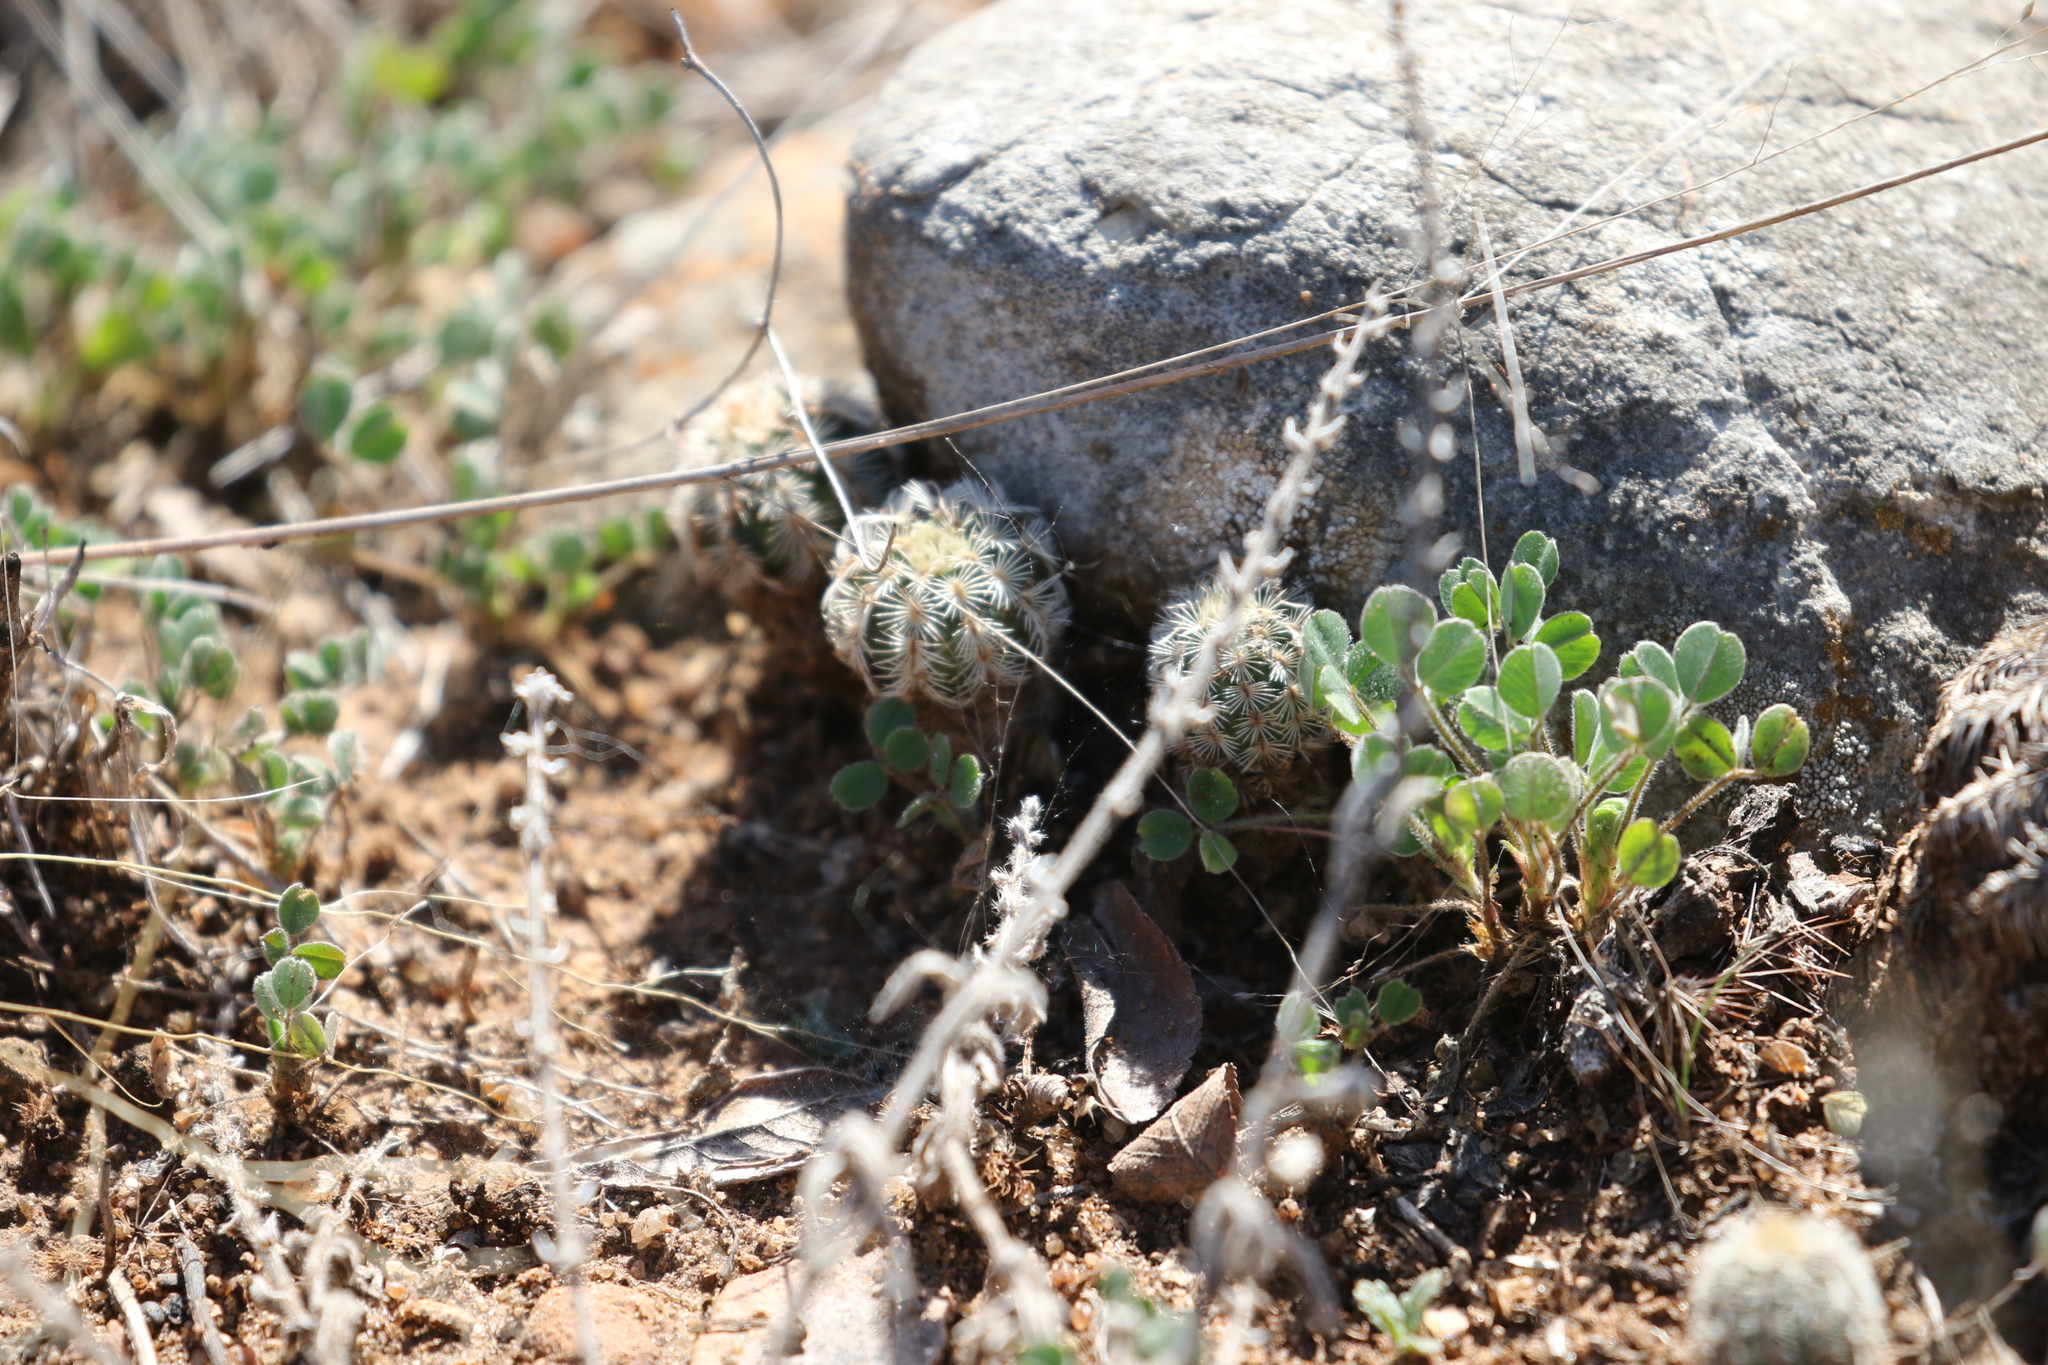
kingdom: Plantae
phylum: Tracheophyta
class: Magnoliopsida
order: Caryophyllales
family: Cactaceae
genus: Echinocereus
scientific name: Echinocereus reichenbachii
